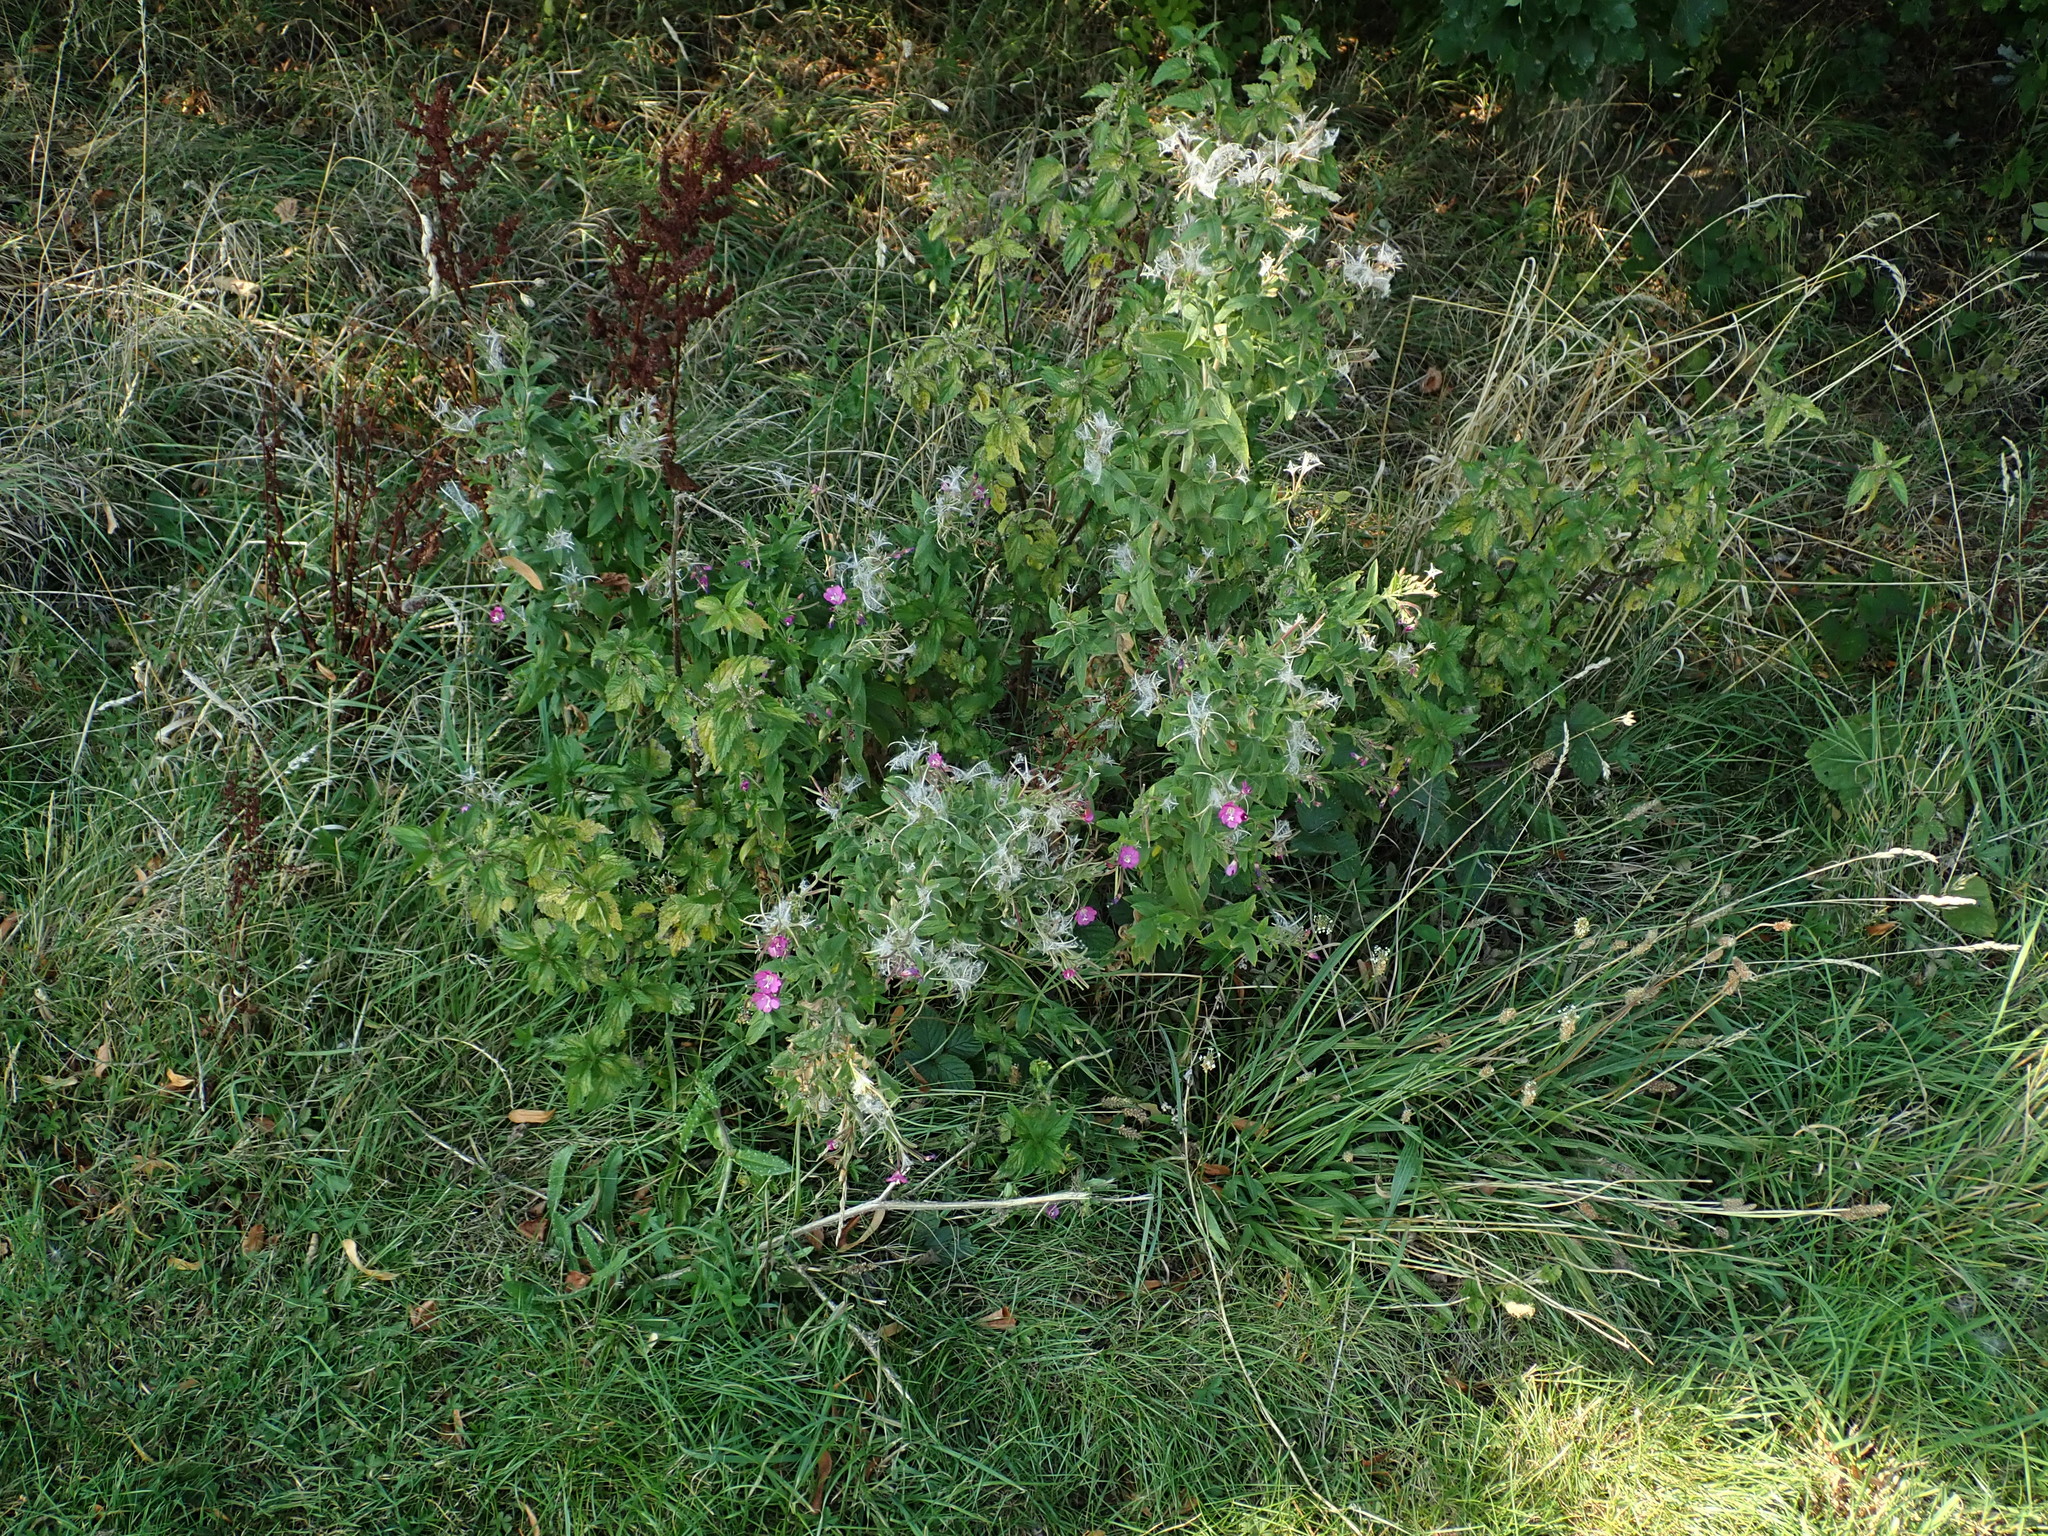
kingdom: Plantae
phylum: Tracheophyta
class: Magnoliopsida
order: Myrtales
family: Onagraceae
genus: Epilobium
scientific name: Epilobium hirsutum
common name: Great willowherb
